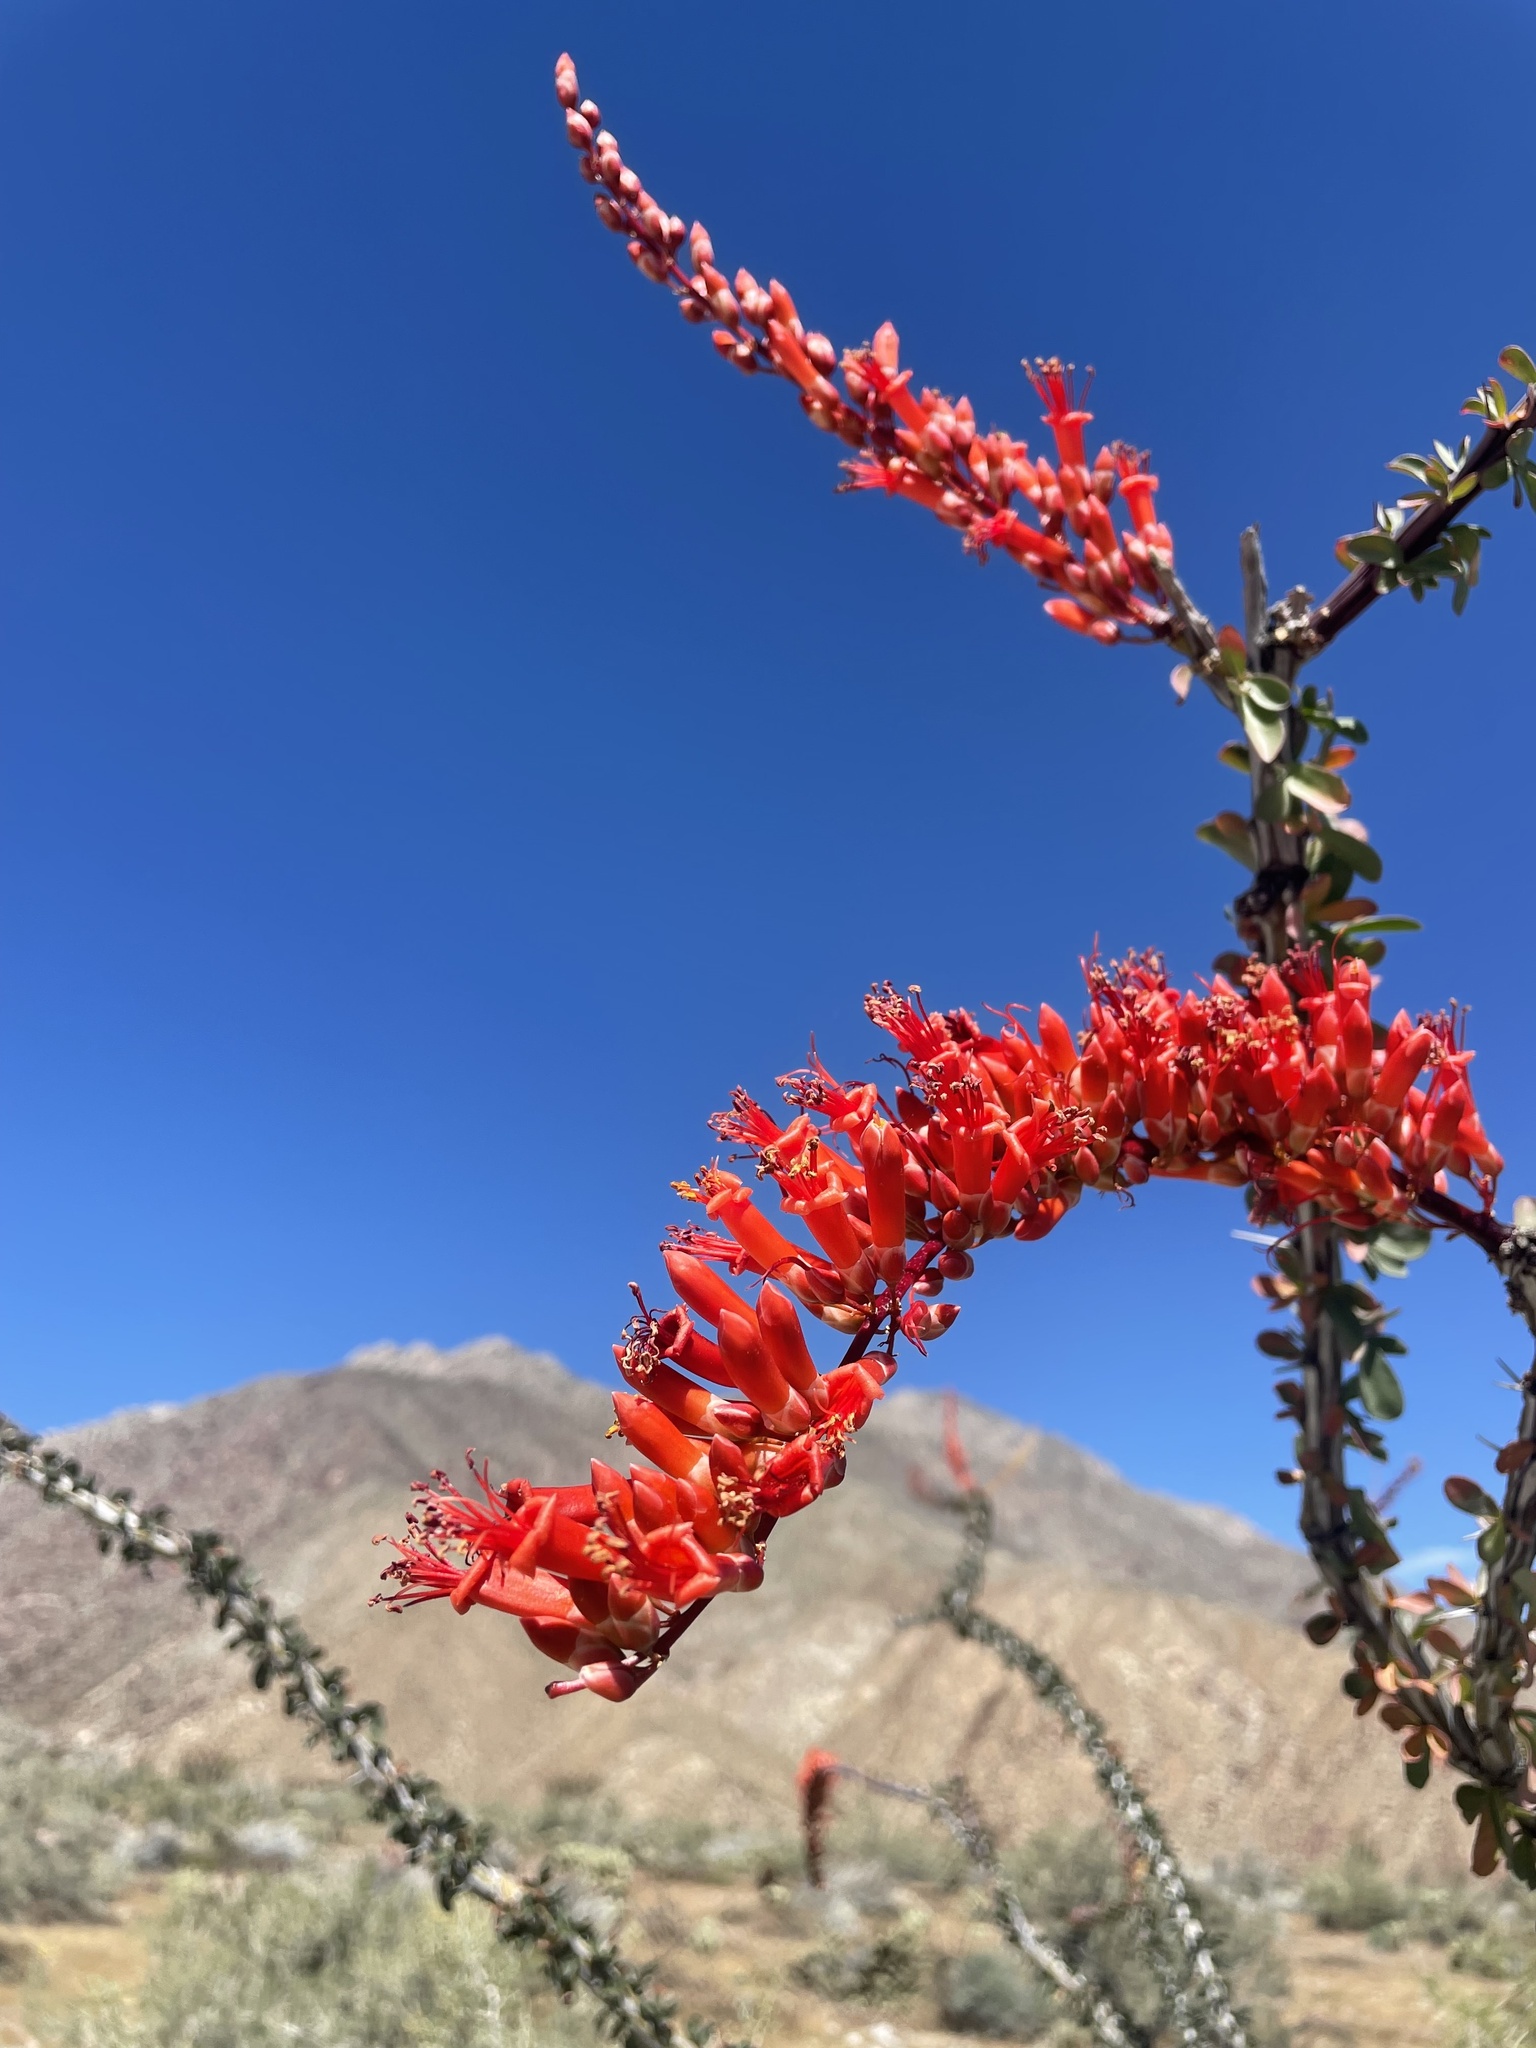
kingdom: Plantae
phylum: Tracheophyta
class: Magnoliopsida
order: Ericales
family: Fouquieriaceae
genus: Fouquieria
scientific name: Fouquieria splendens
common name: Vine-cactus
